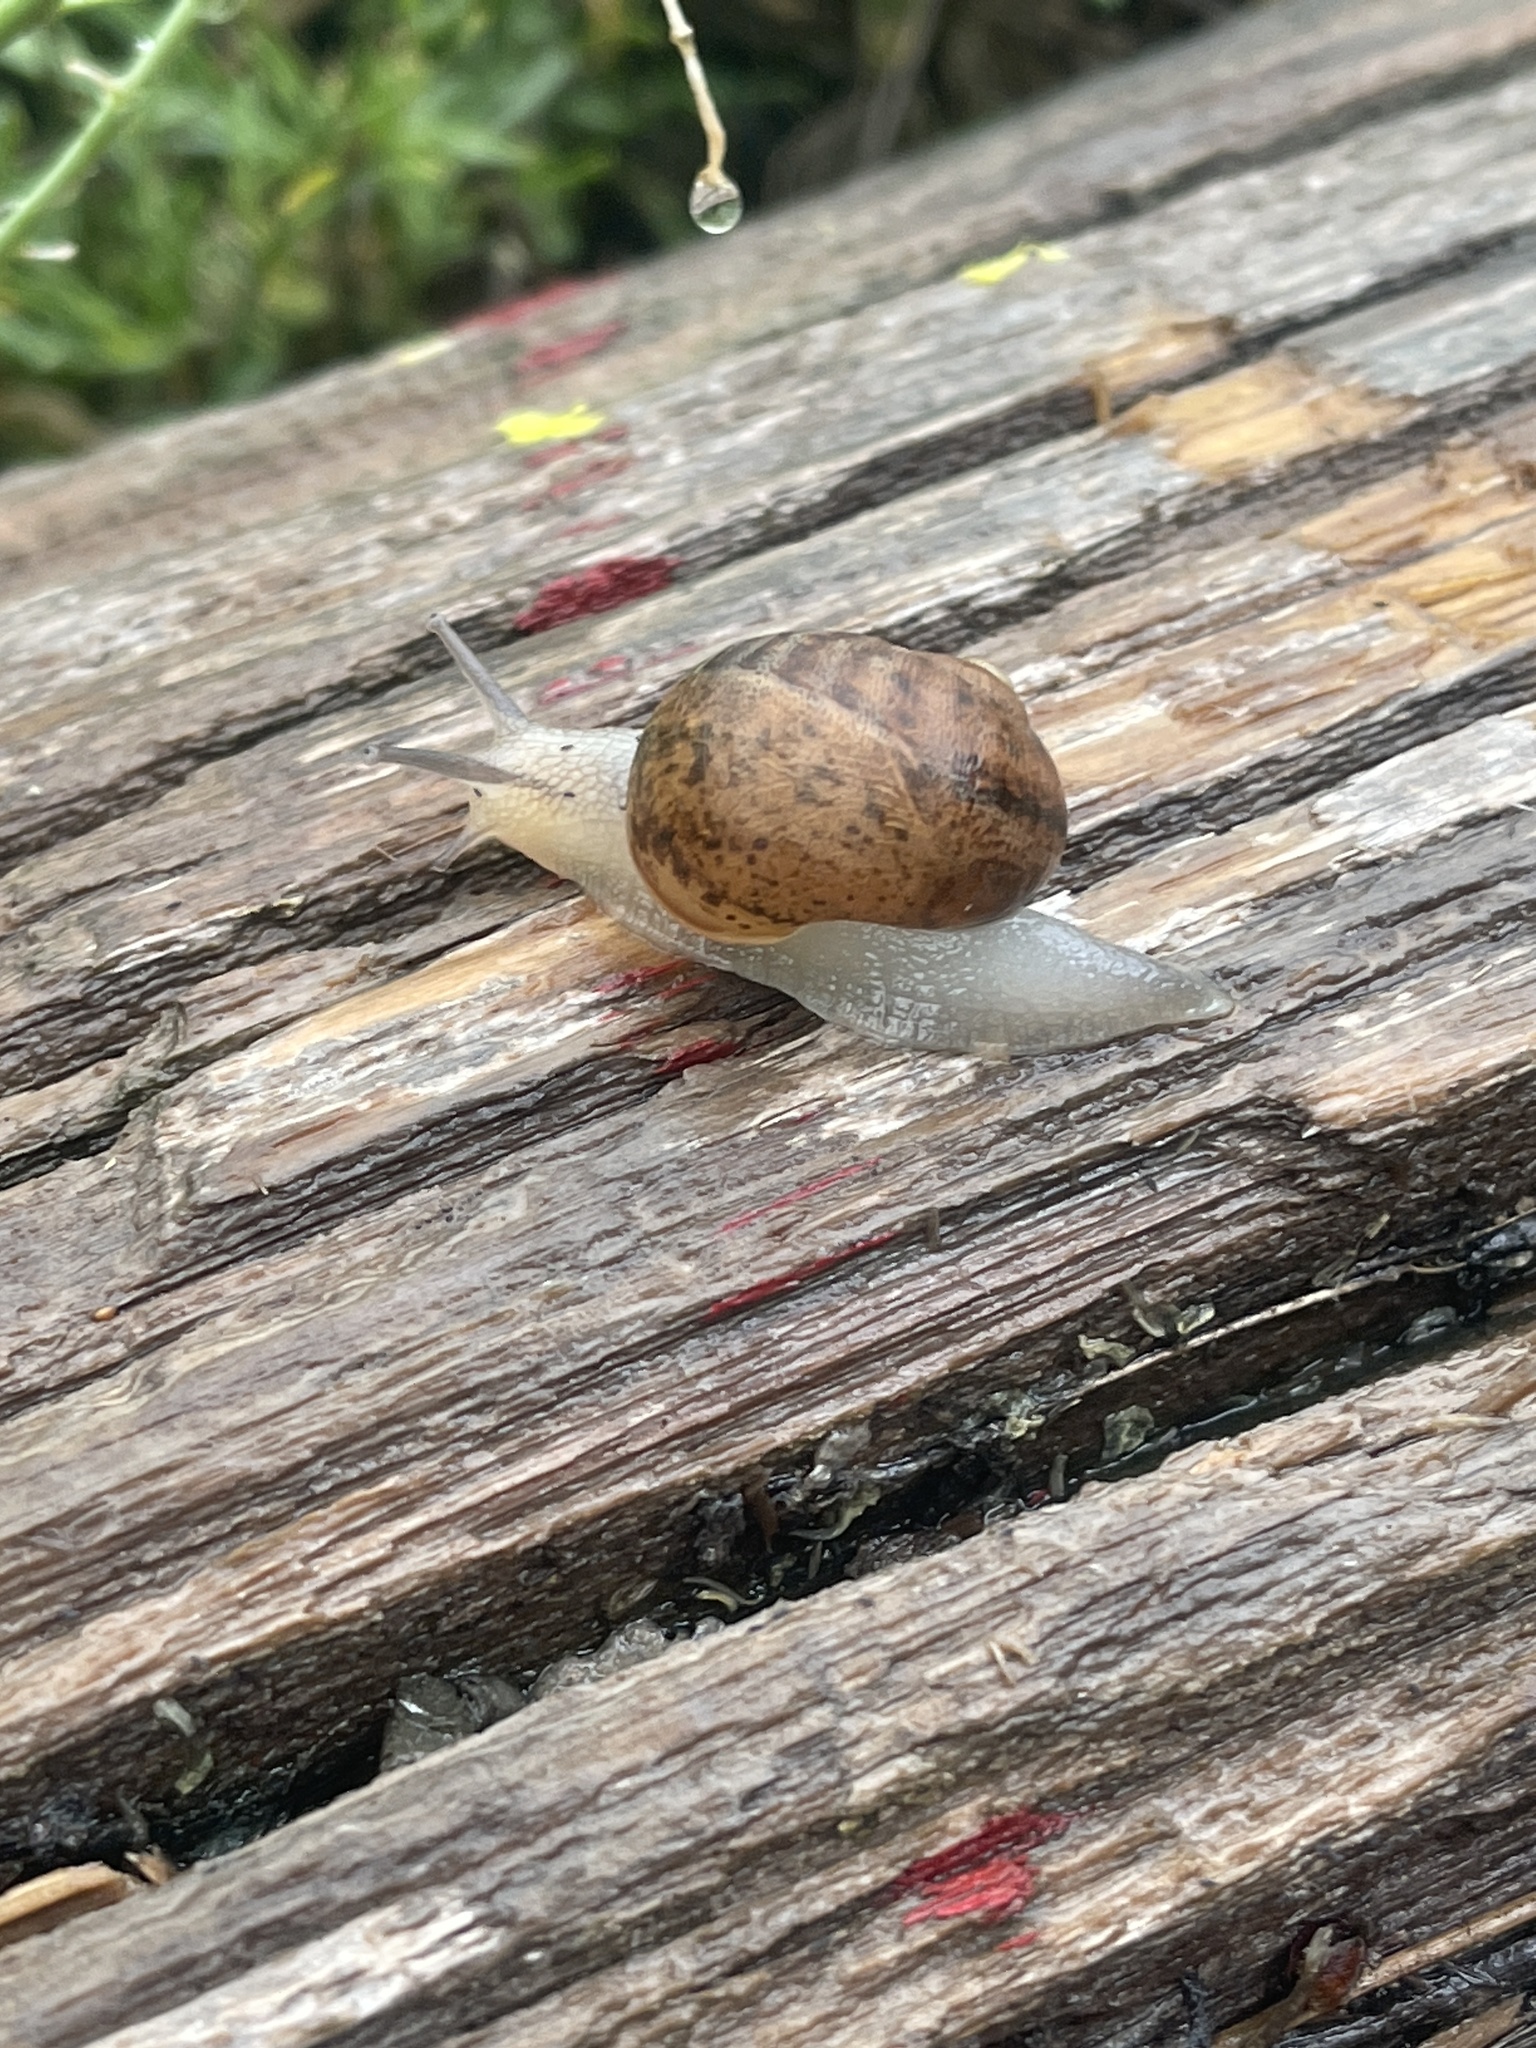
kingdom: Animalia
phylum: Mollusca
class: Gastropoda
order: Stylommatophora
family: Helicidae
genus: Cornu
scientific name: Cornu aspersum
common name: Brown garden snail
